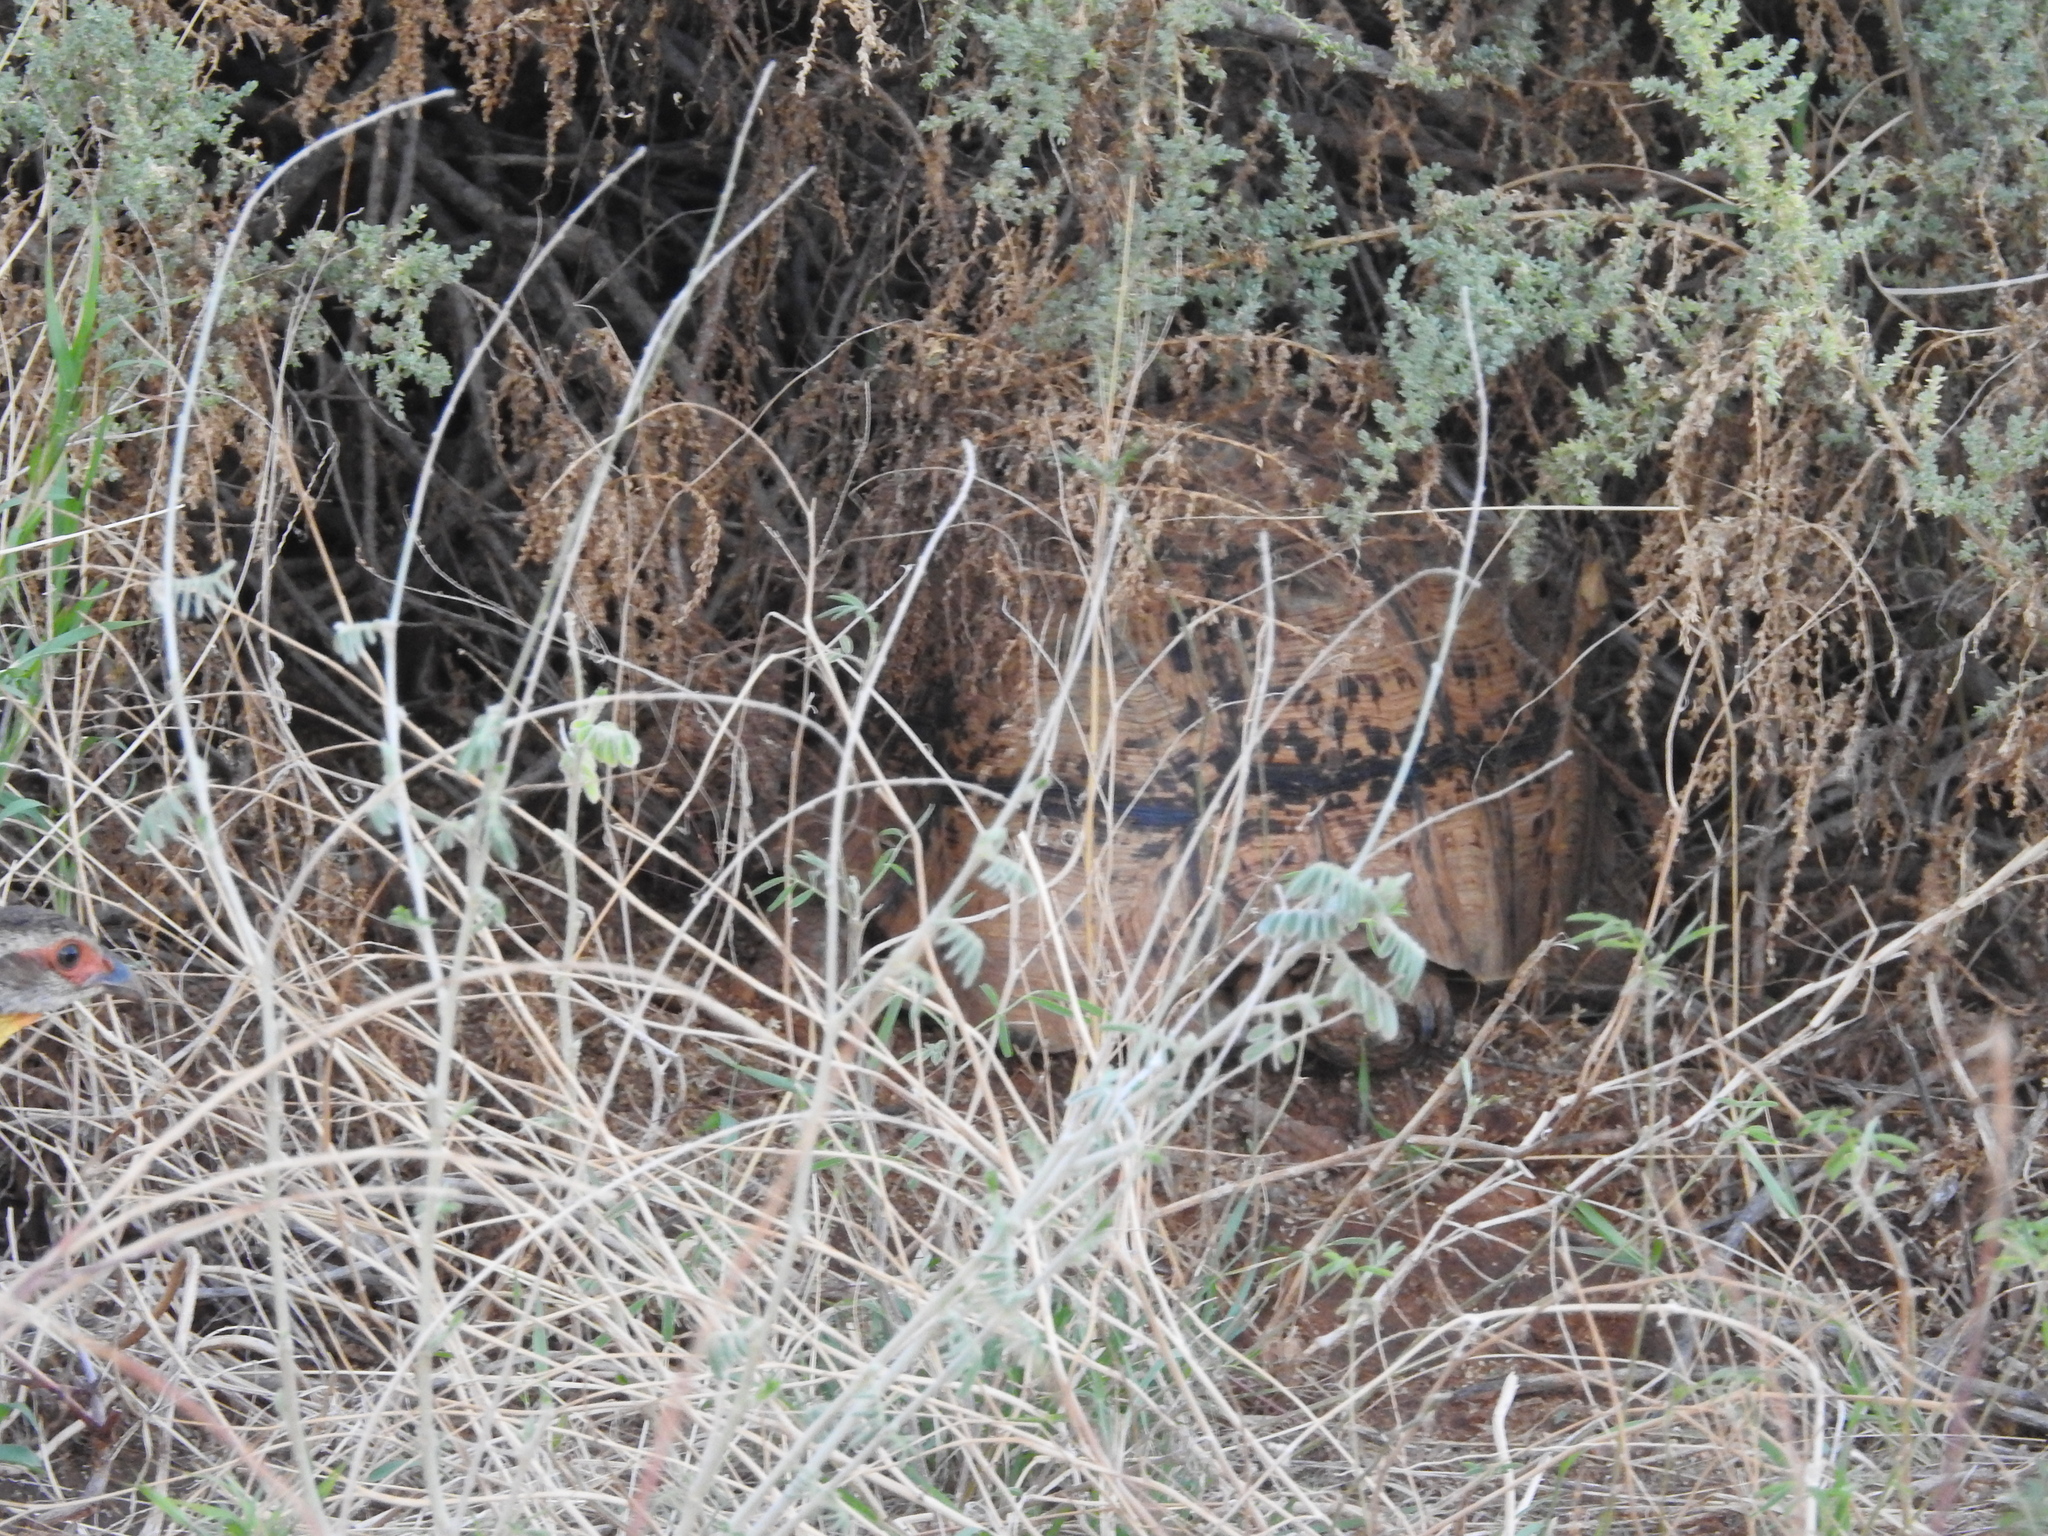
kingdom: Animalia
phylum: Chordata
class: Testudines
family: Testudinidae
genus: Stigmochelys
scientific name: Stigmochelys pardalis
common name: Leopard tortoise
